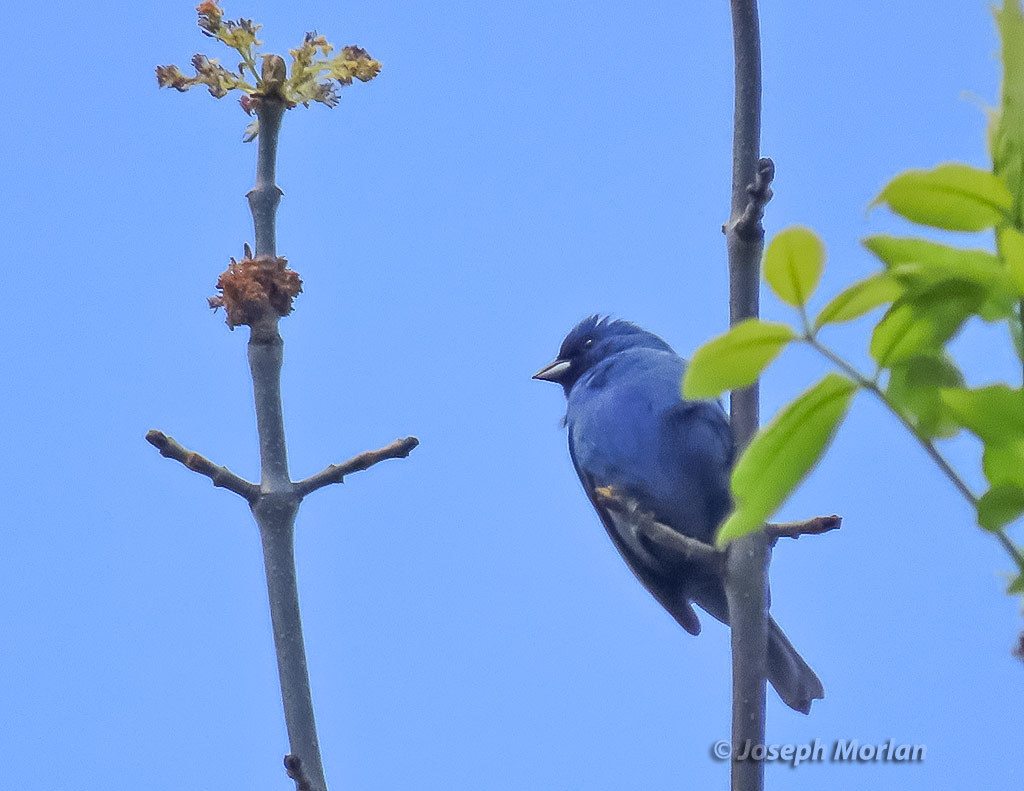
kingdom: Animalia
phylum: Chordata
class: Aves
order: Passeriformes
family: Cardinalidae
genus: Passerina
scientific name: Passerina cyanea
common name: Indigo bunting
